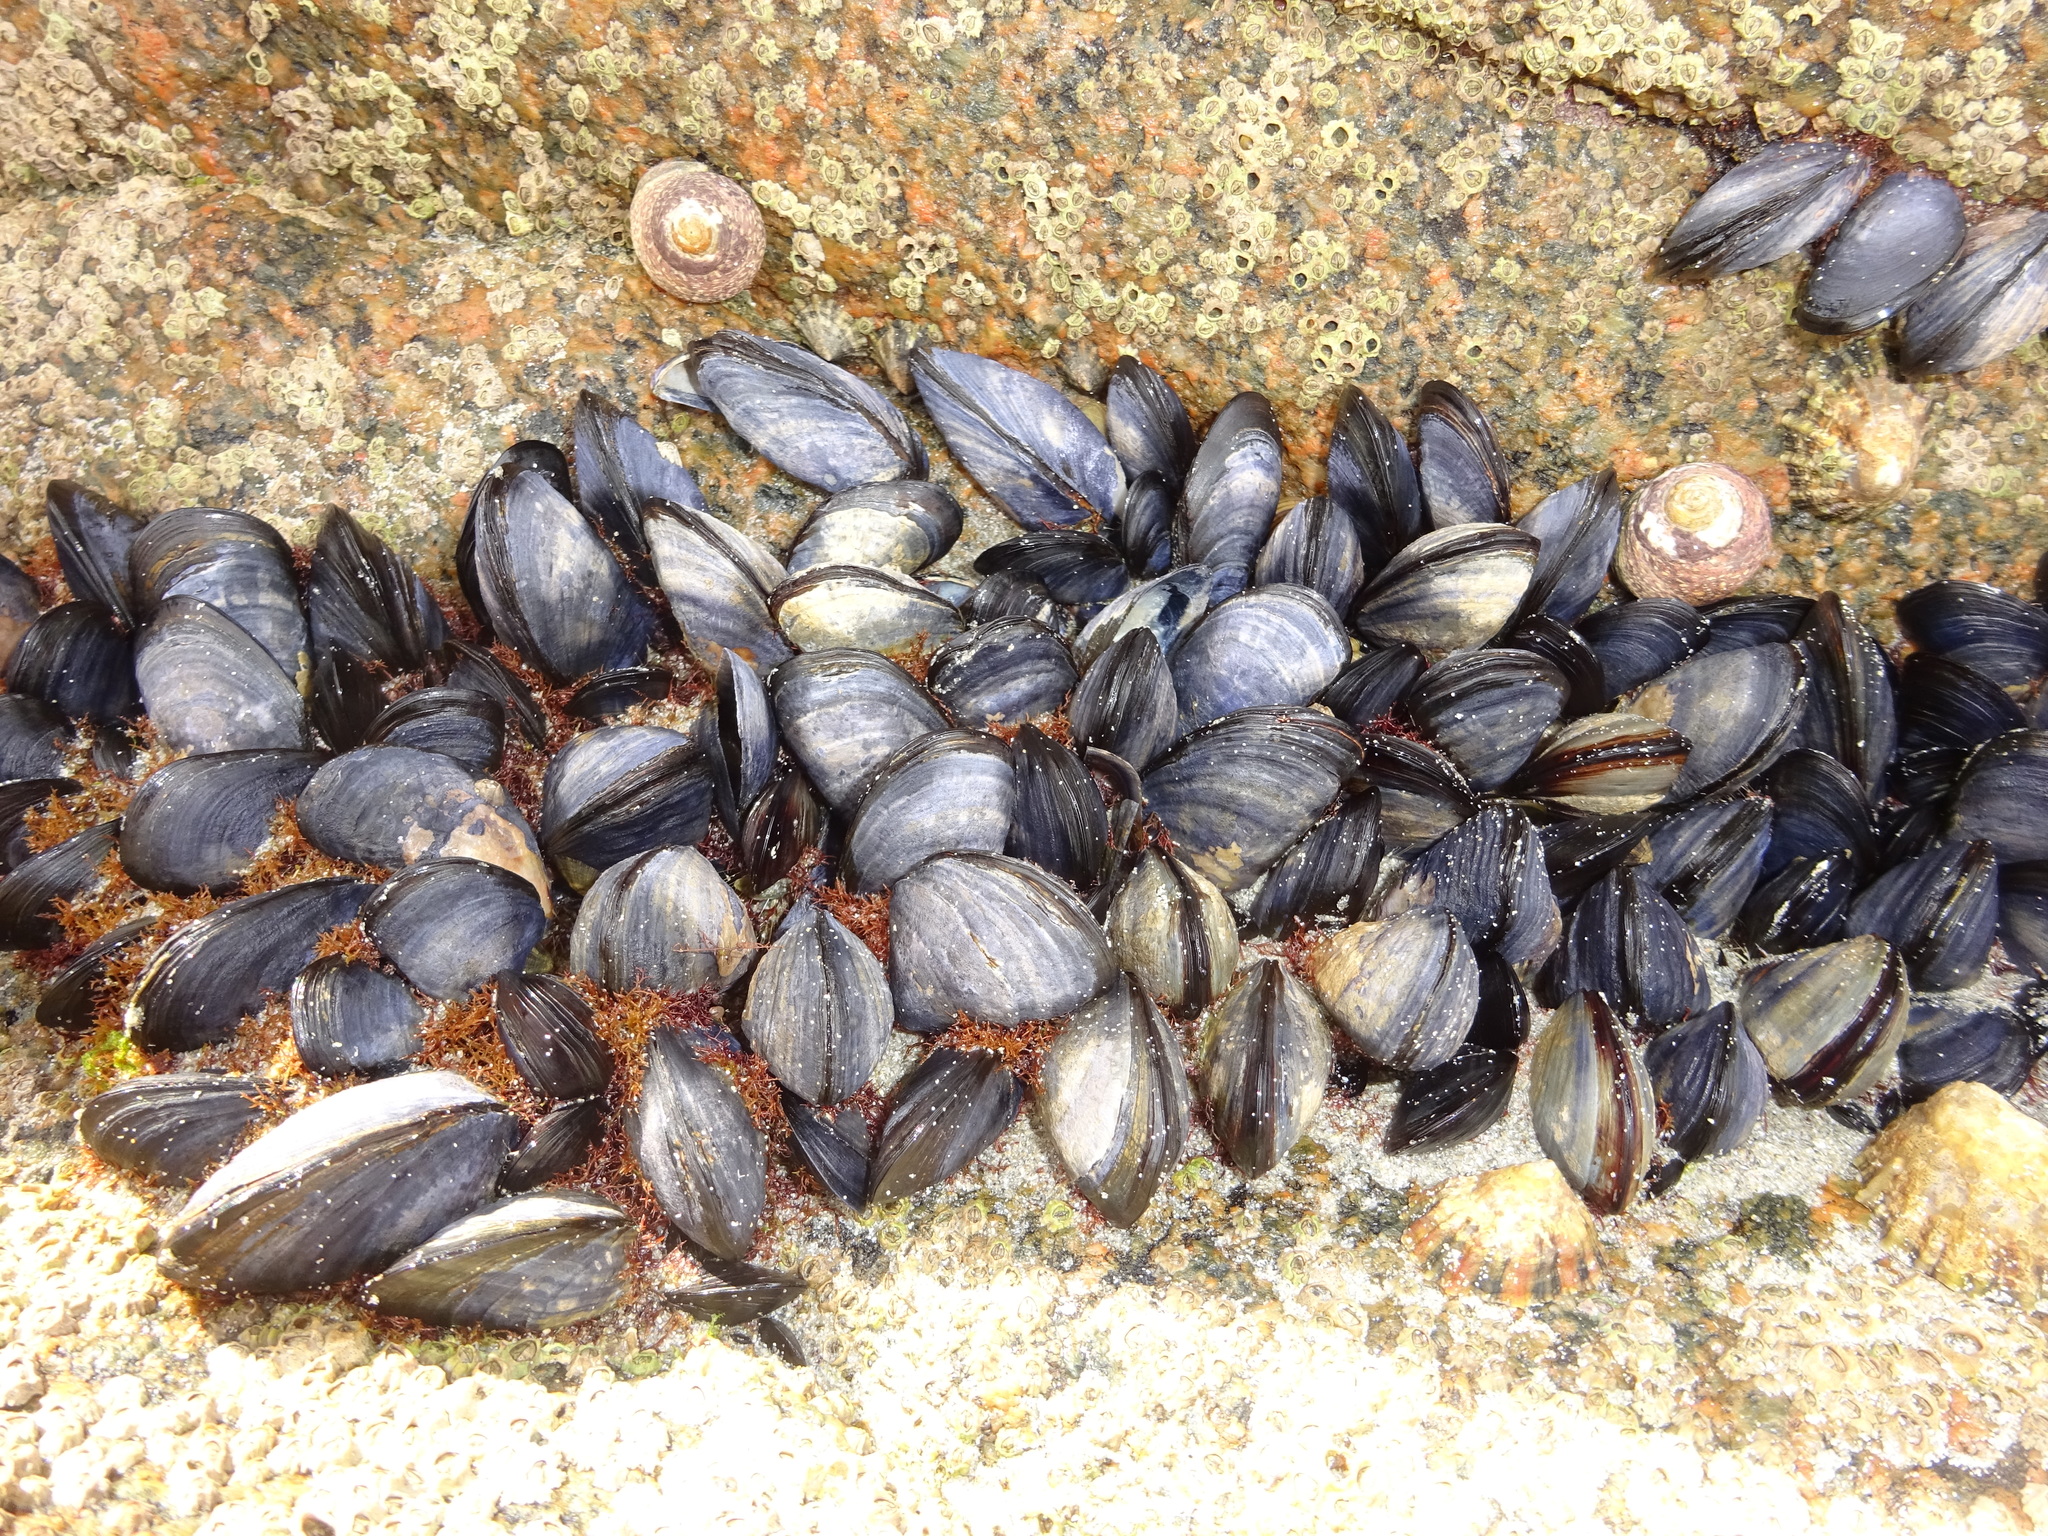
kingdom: Animalia
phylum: Mollusca
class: Bivalvia
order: Mytilida
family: Mytilidae
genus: Mytilus
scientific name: Mytilus edulis
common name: Blue mussel
